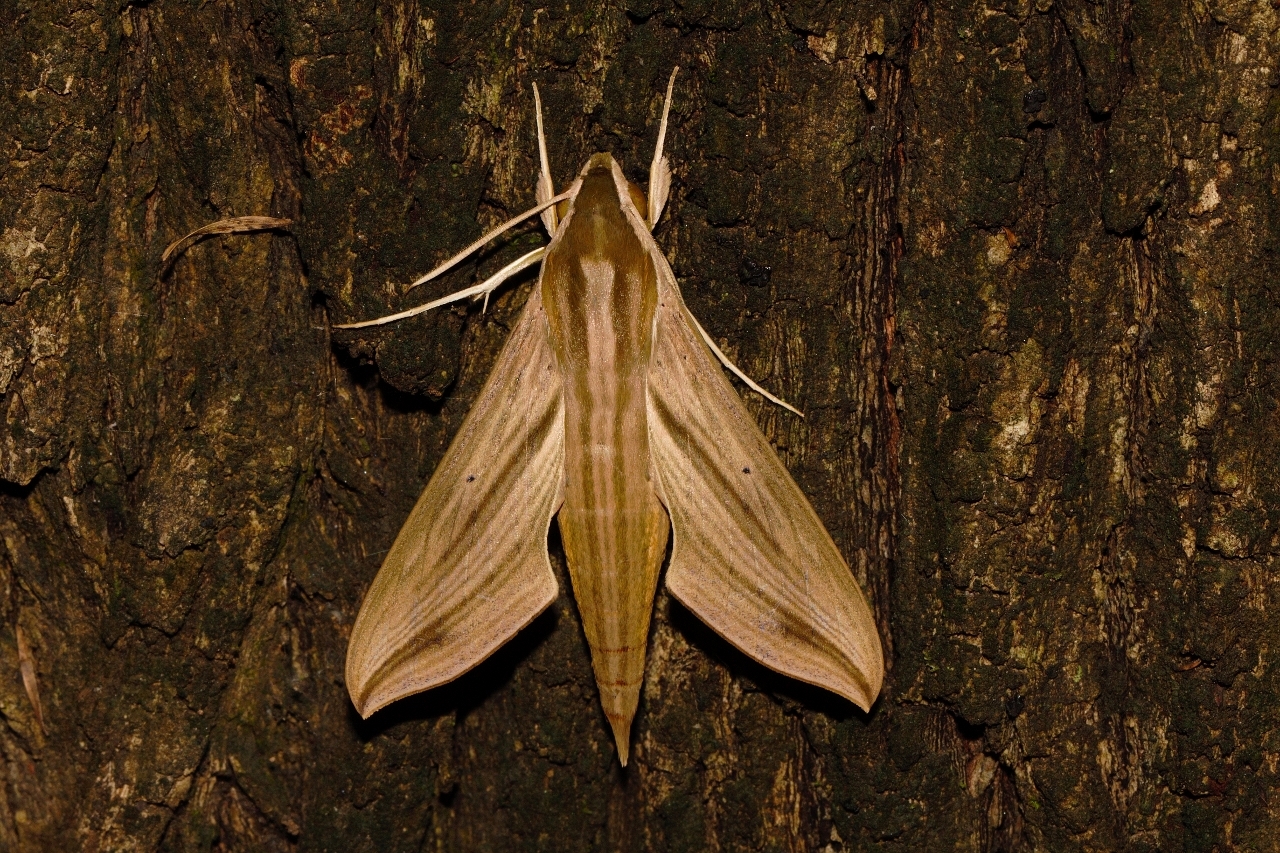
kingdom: Animalia
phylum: Arthropoda
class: Insecta
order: Lepidoptera
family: Sphingidae
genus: Hippotion
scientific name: Hippotion eson
